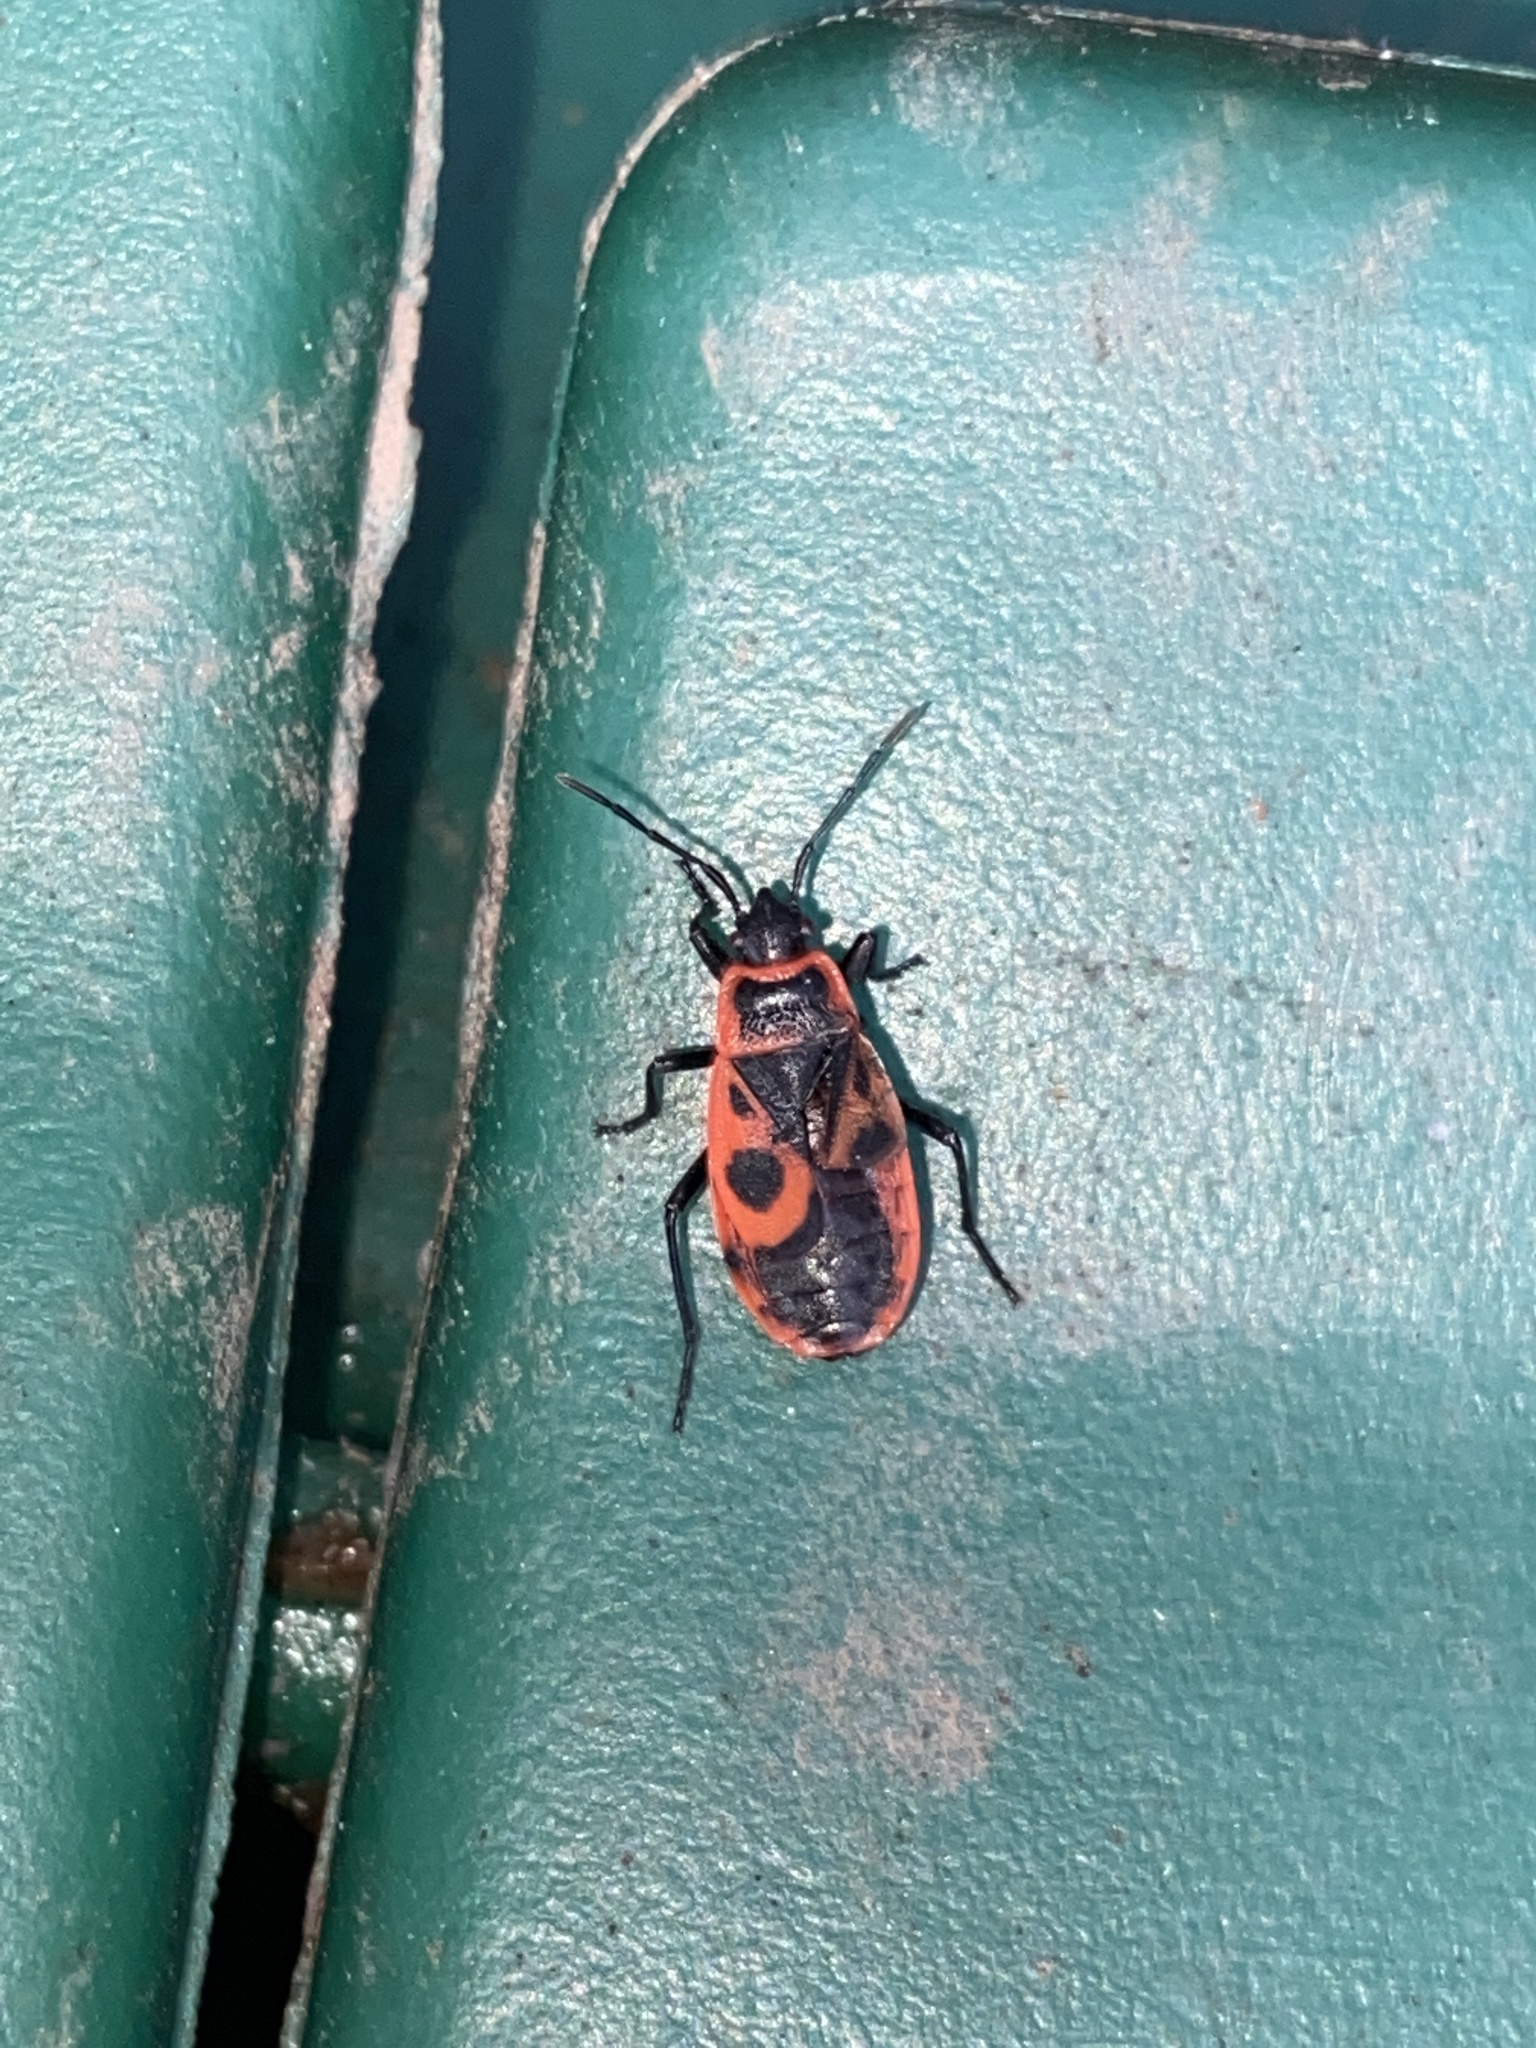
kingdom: Animalia
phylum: Arthropoda
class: Insecta
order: Hemiptera
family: Pyrrhocoridae
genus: Pyrrhocoris
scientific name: Pyrrhocoris apterus
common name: Firebug
